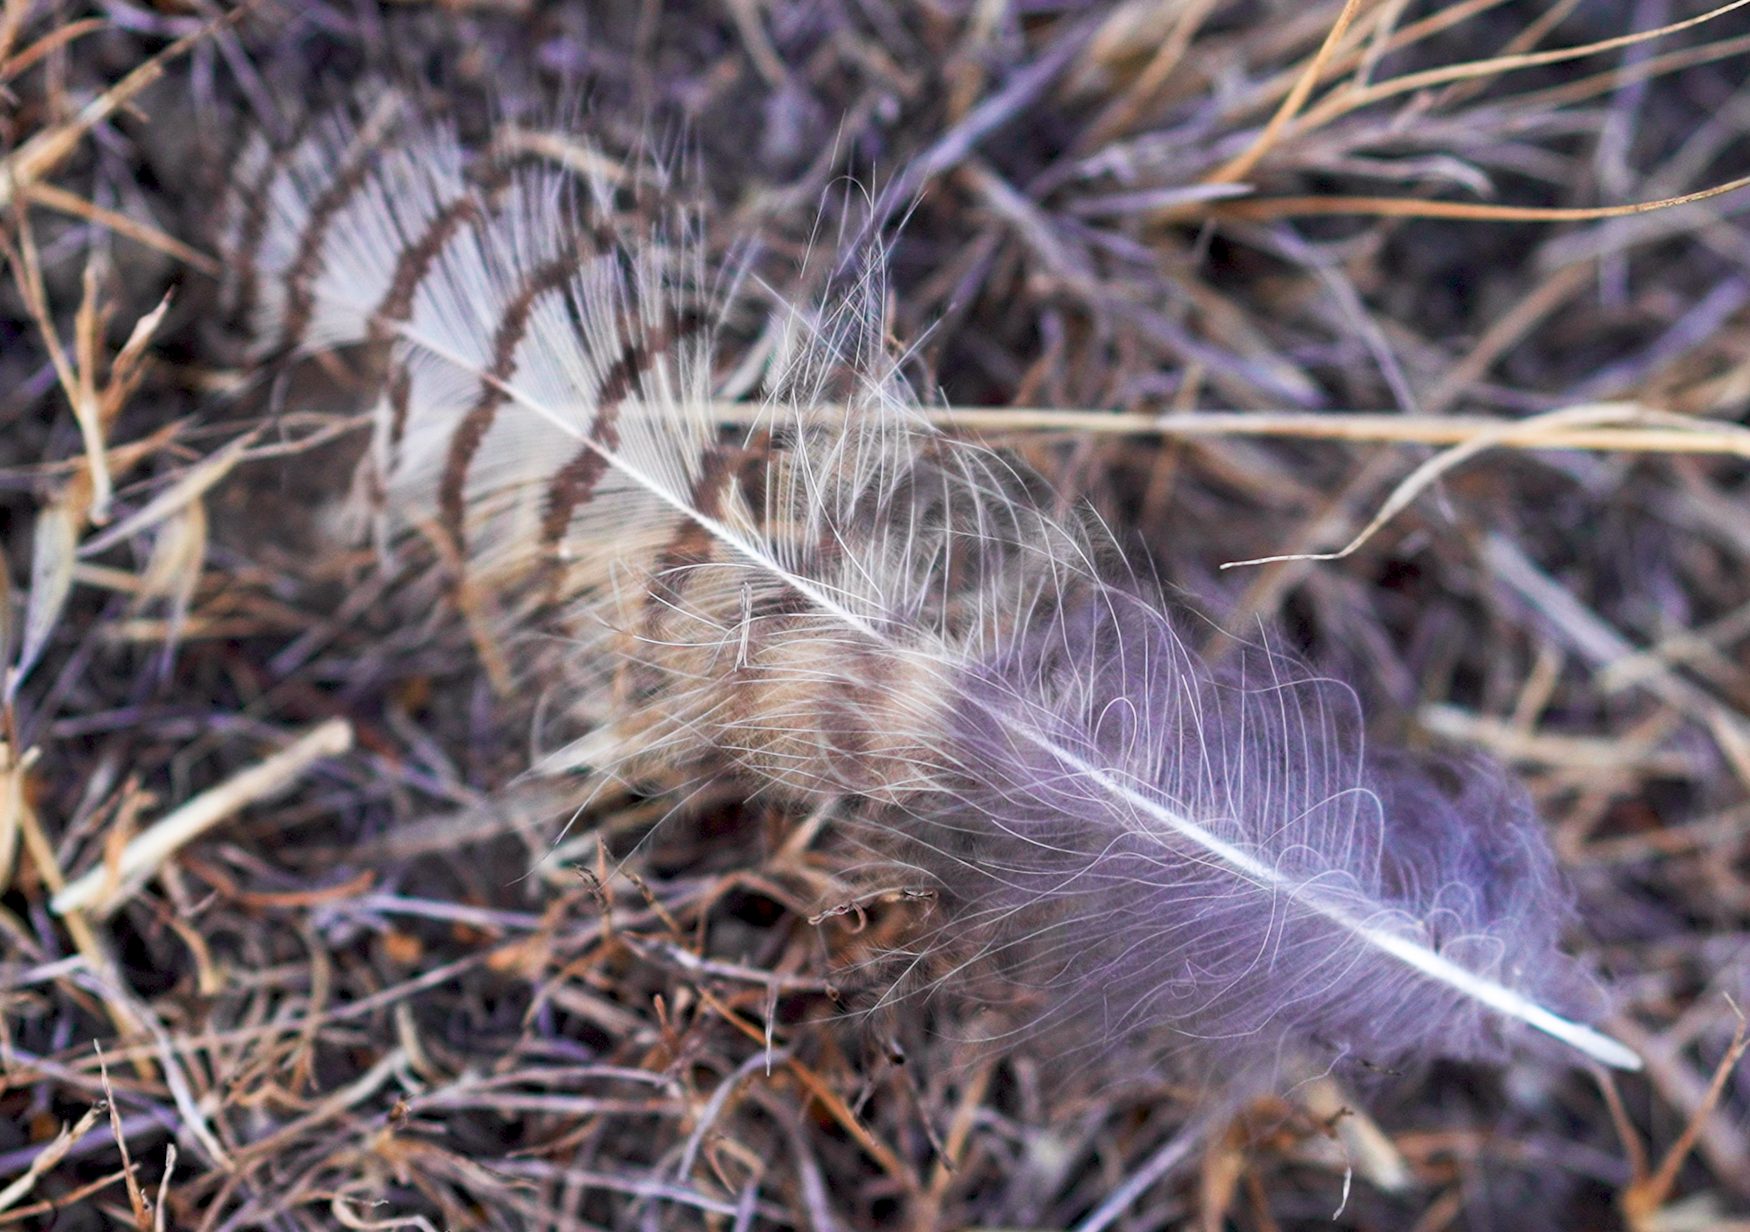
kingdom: Animalia
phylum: Chordata
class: Aves
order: Strigiformes
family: Strigidae
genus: Bubo
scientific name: Bubo virginianus
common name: Great horned owl
